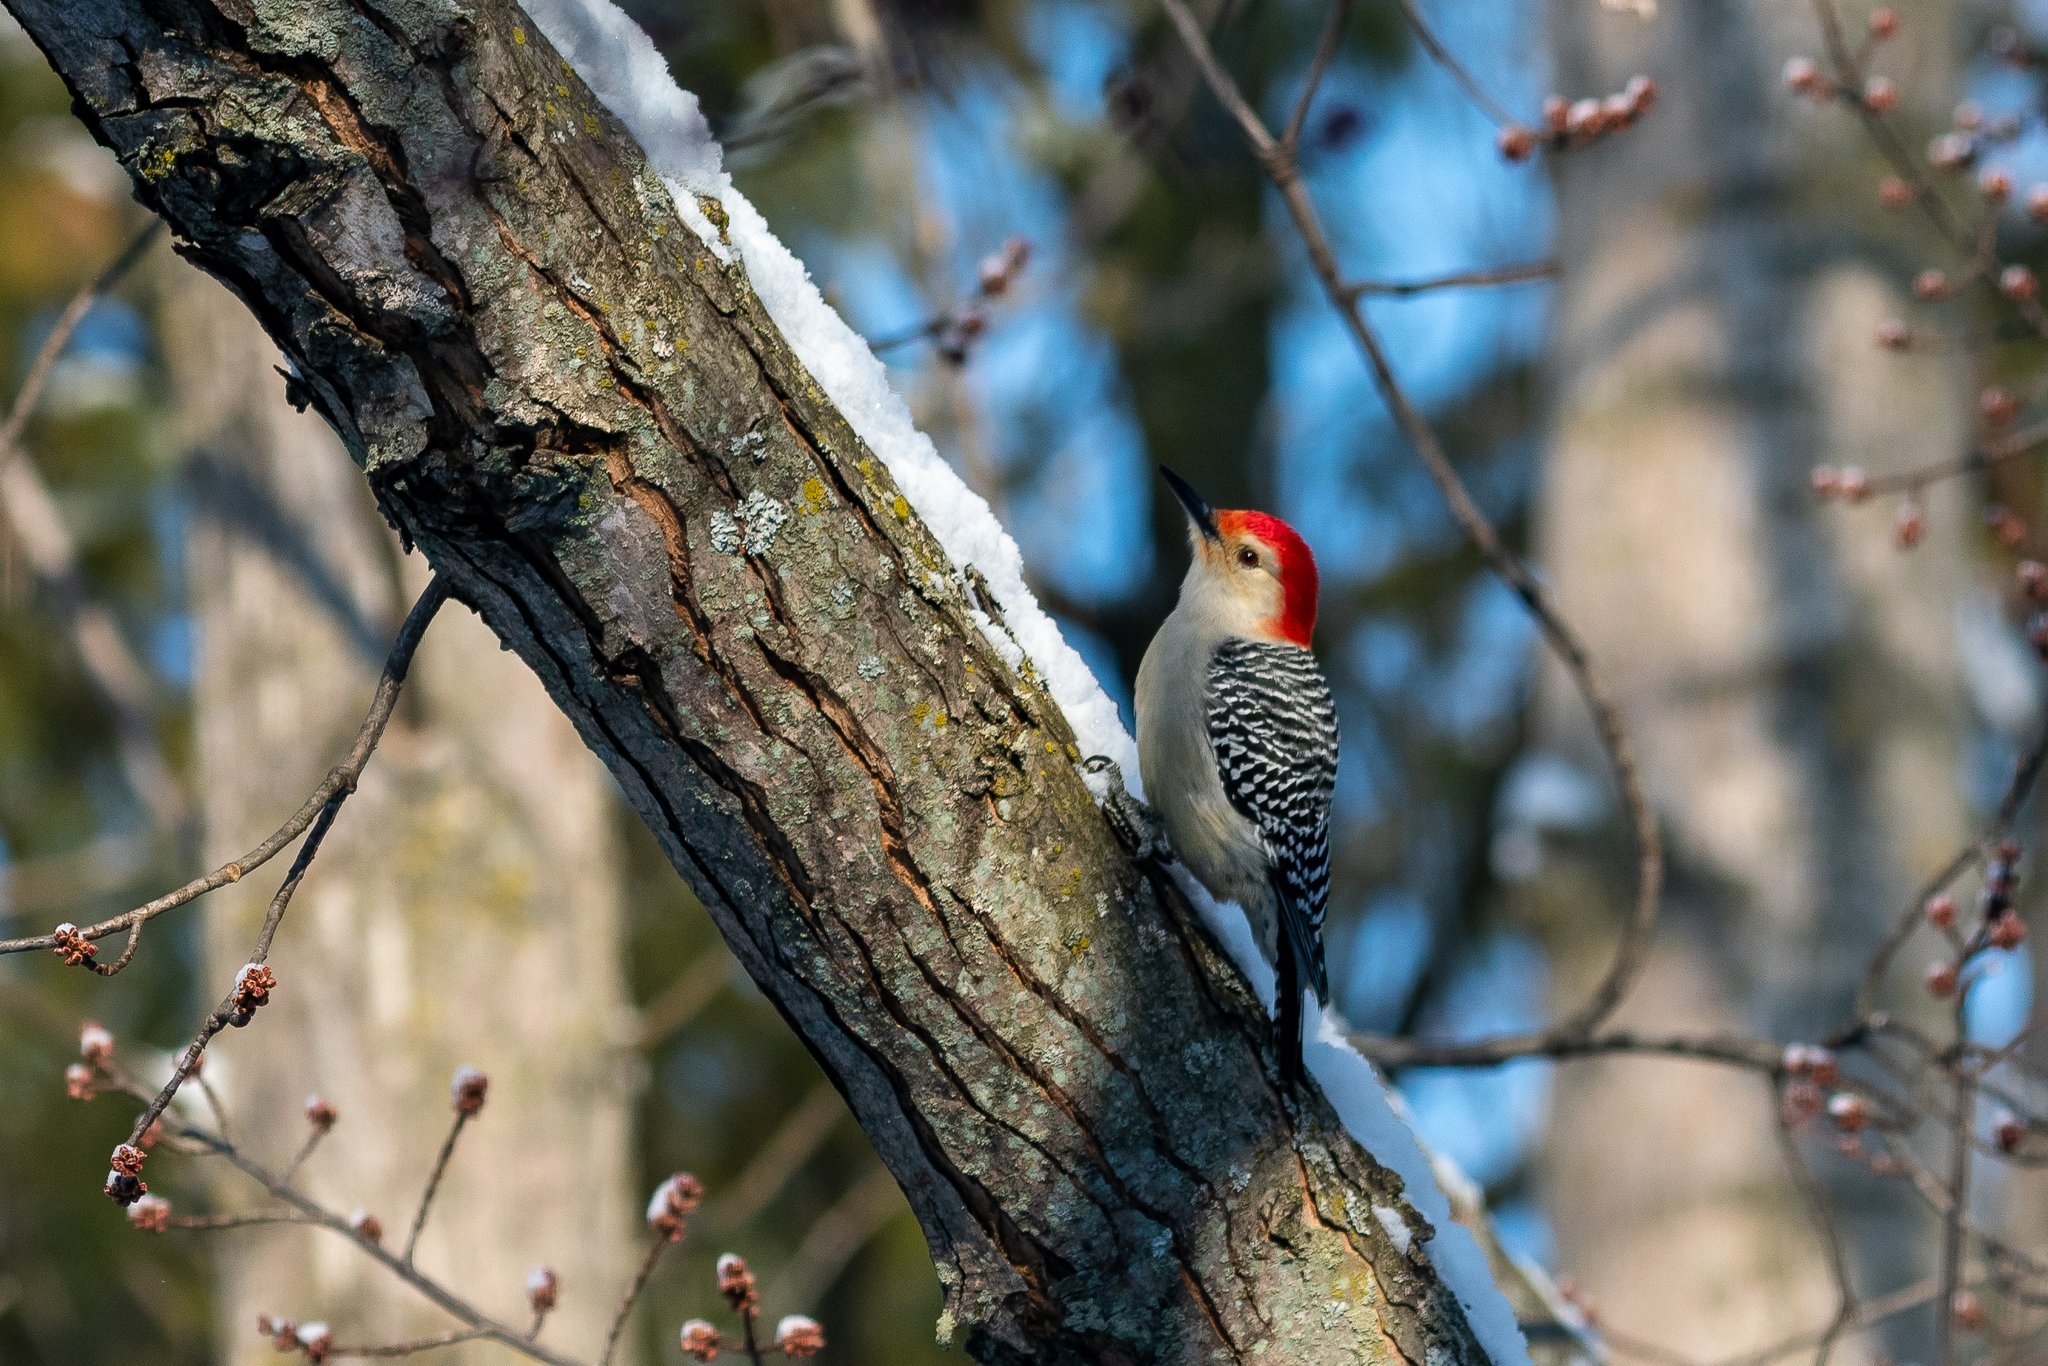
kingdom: Animalia
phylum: Chordata
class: Aves
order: Piciformes
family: Picidae
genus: Melanerpes
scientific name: Melanerpes carolinus
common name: Red-bellied woodpecker
